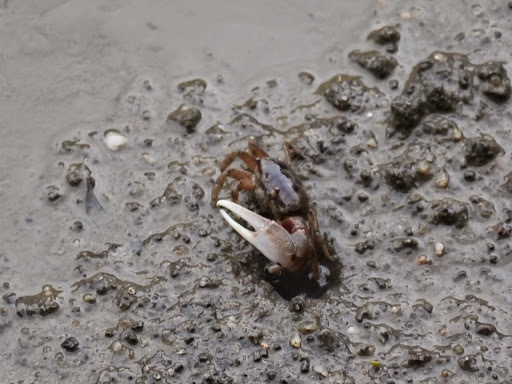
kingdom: Animalia
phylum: Arthropoda
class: Malacostraca
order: Decapoda
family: Ocypodidae
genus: Leptuca
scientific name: Leptuca pugilator
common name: Atlantic sand fiddler crab
